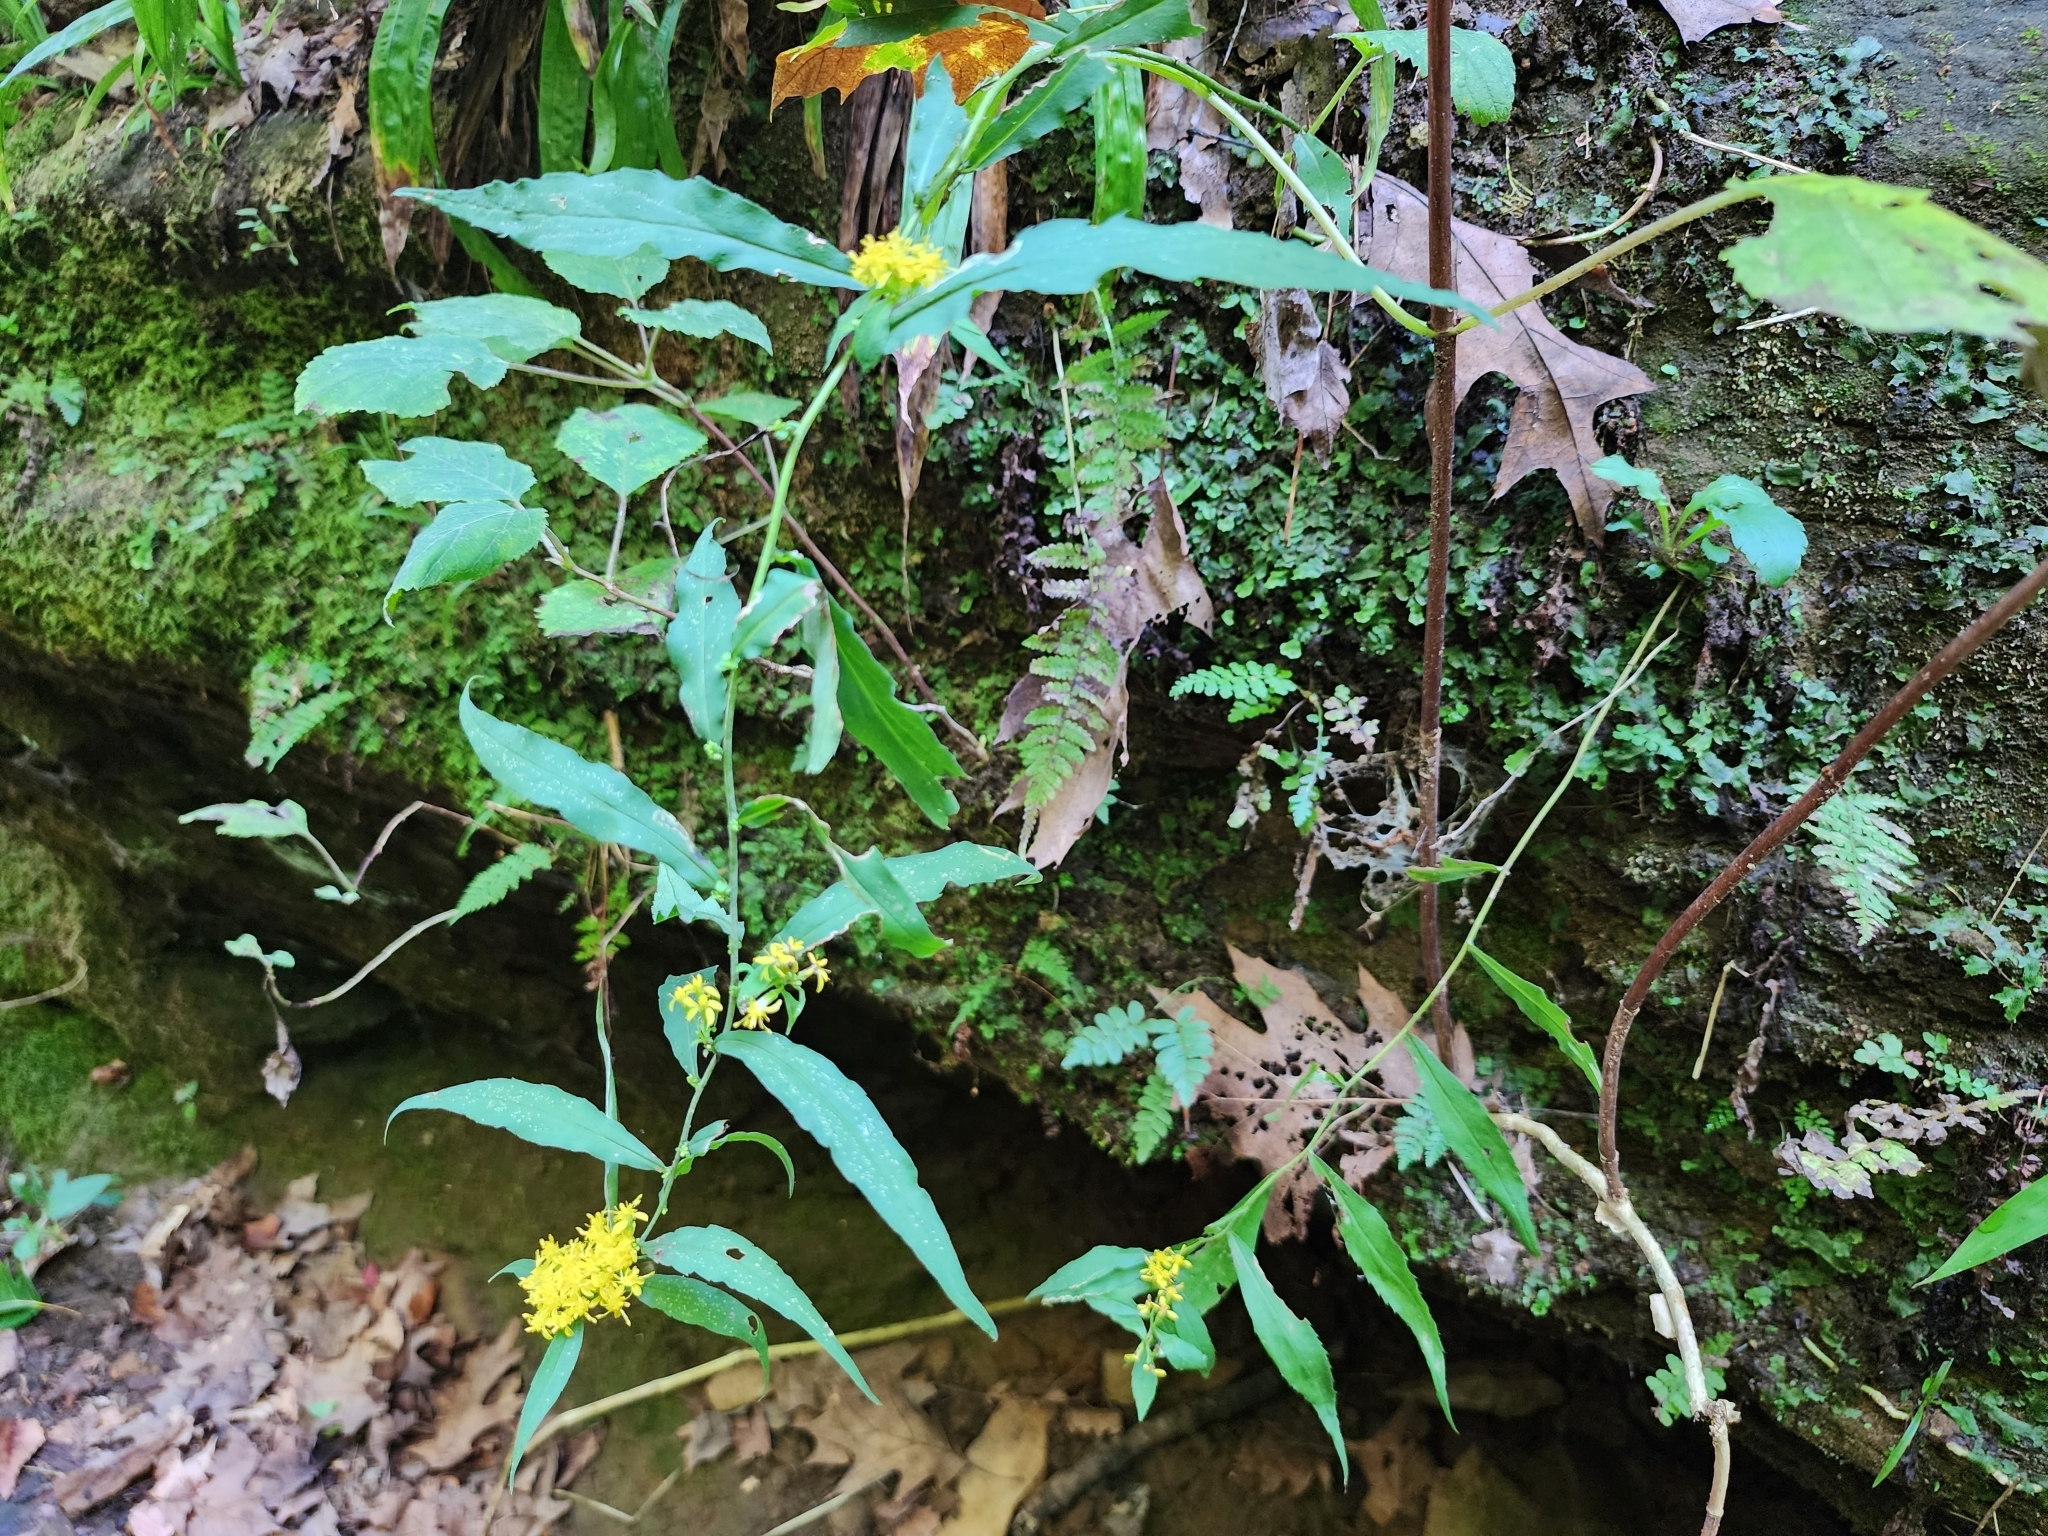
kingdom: Plantae
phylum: Tracheophyta
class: Magnoliopsida
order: Asterales
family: Asteraceae
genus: Solidago
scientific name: Solidago caesia
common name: Woodland goldenrod
